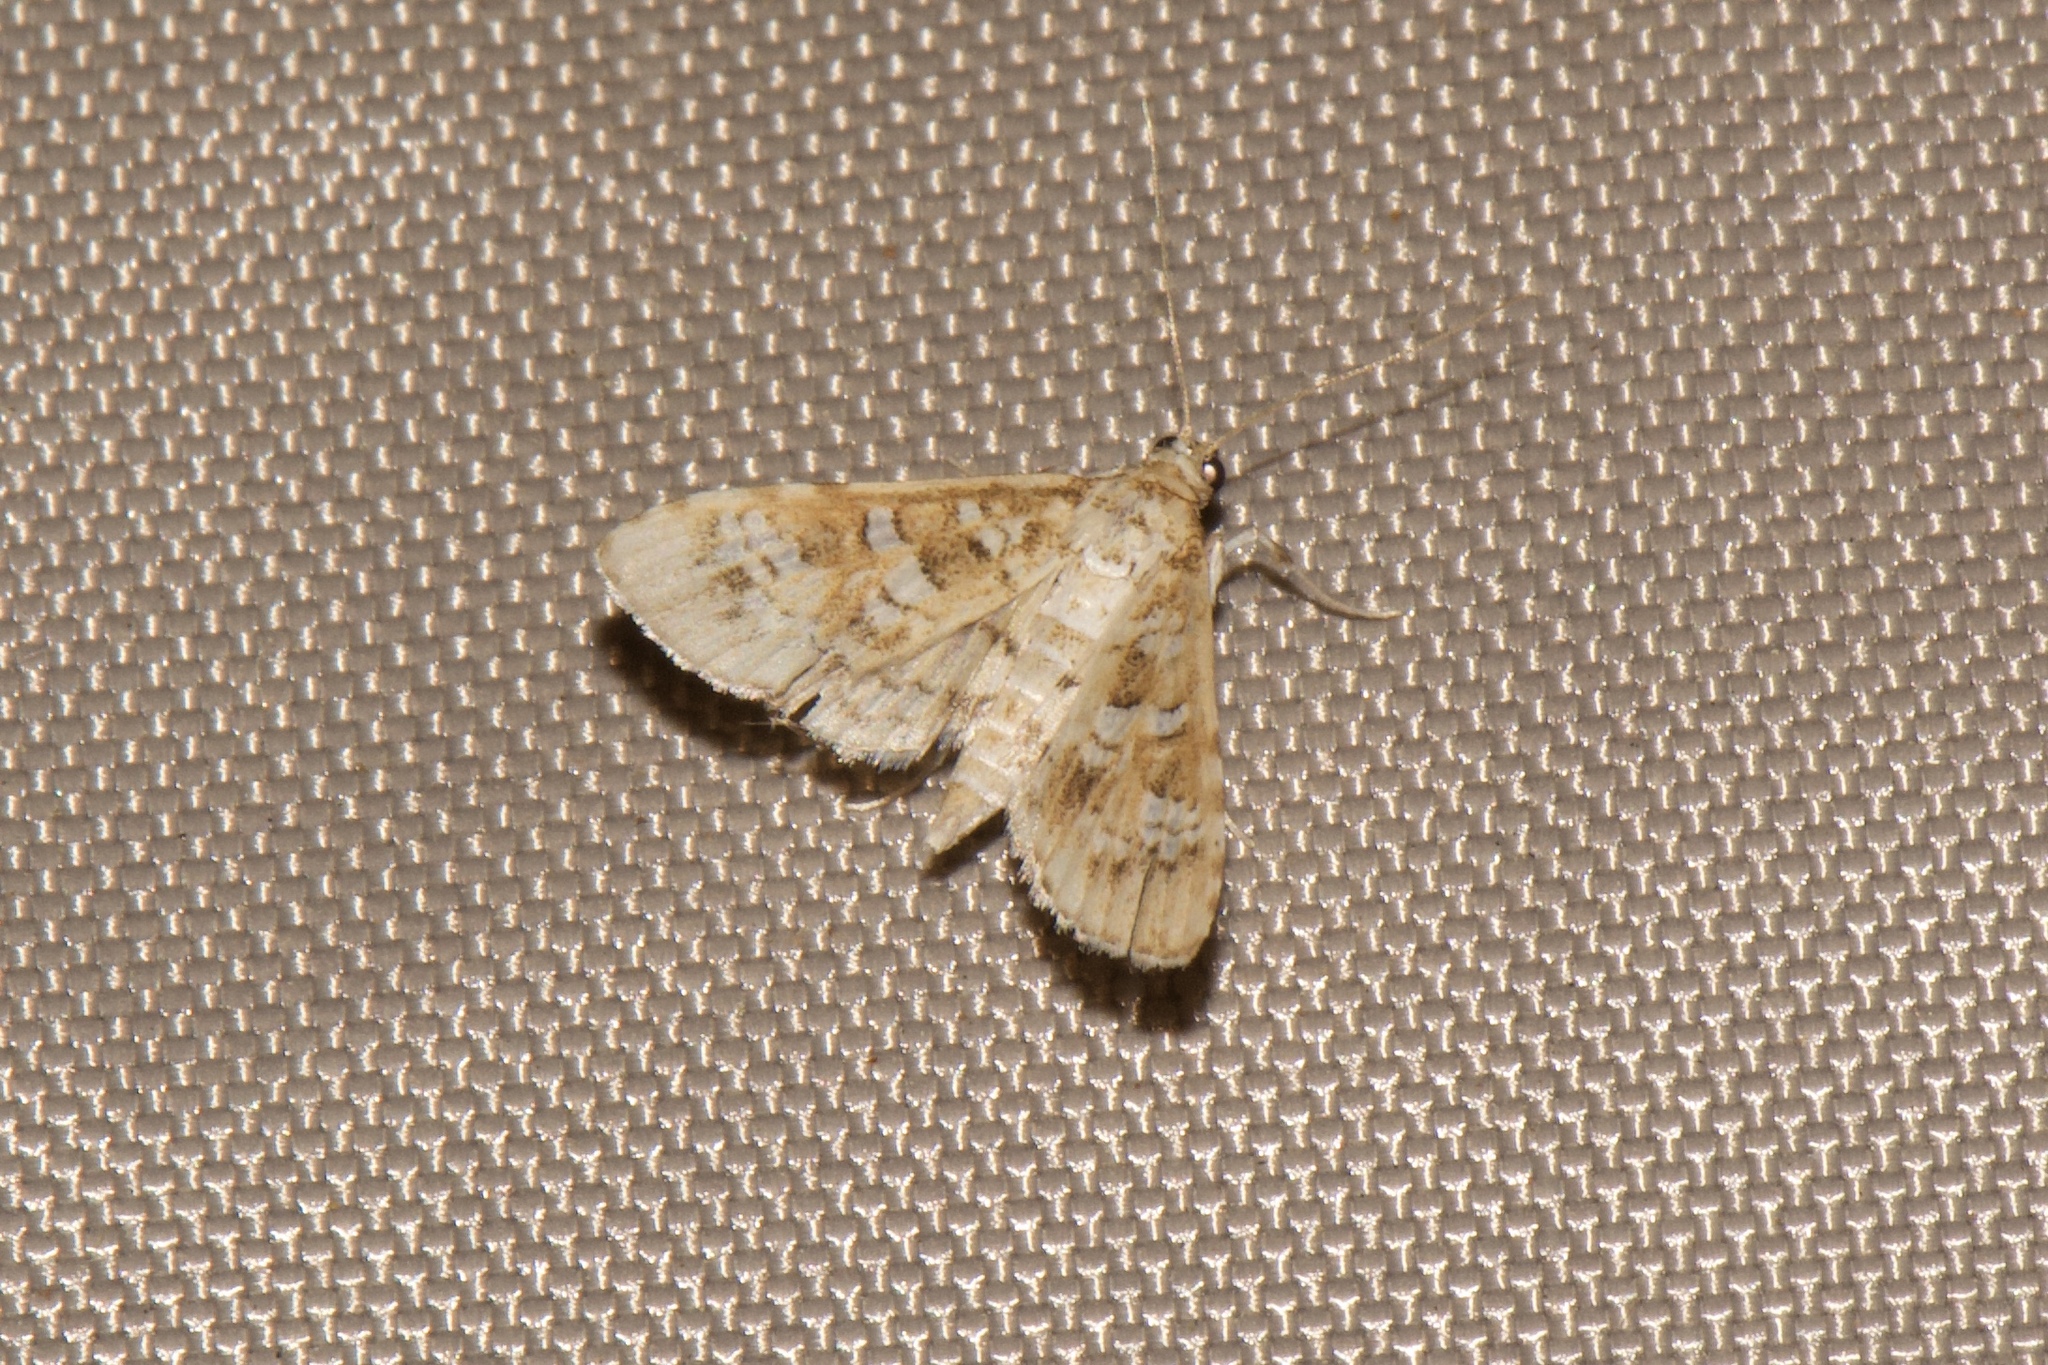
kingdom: Animalia
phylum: Arthropoda
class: Insecta
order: Lepidoptera
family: Crambidae
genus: Samea
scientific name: Samea multiplicalis
